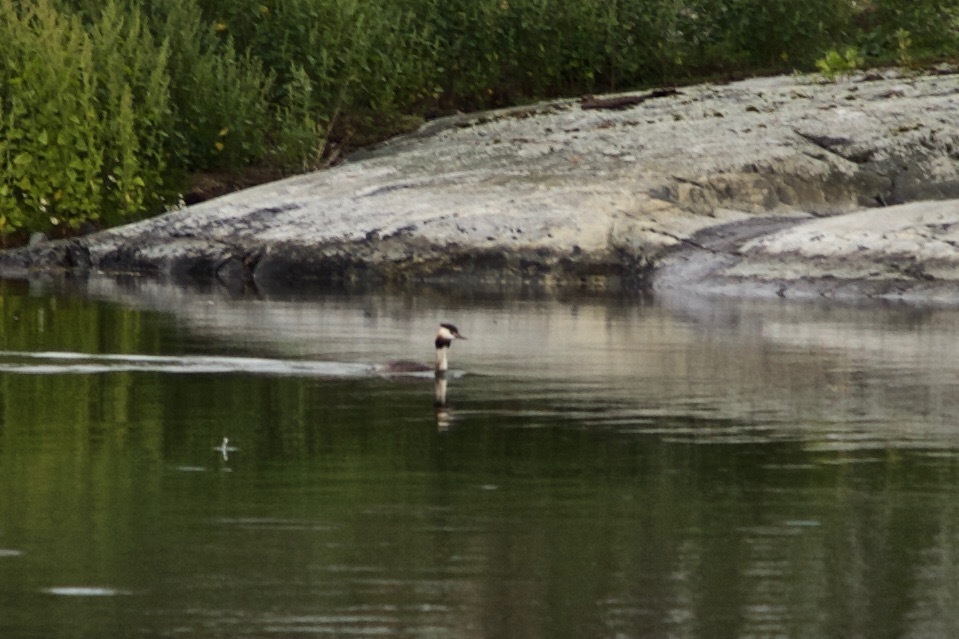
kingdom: Animalia
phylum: Chordata
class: Aves
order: Podicipediformes
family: Podicipedidae
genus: Podiceps
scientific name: Podiceps cristatus
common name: Great crested grebe
